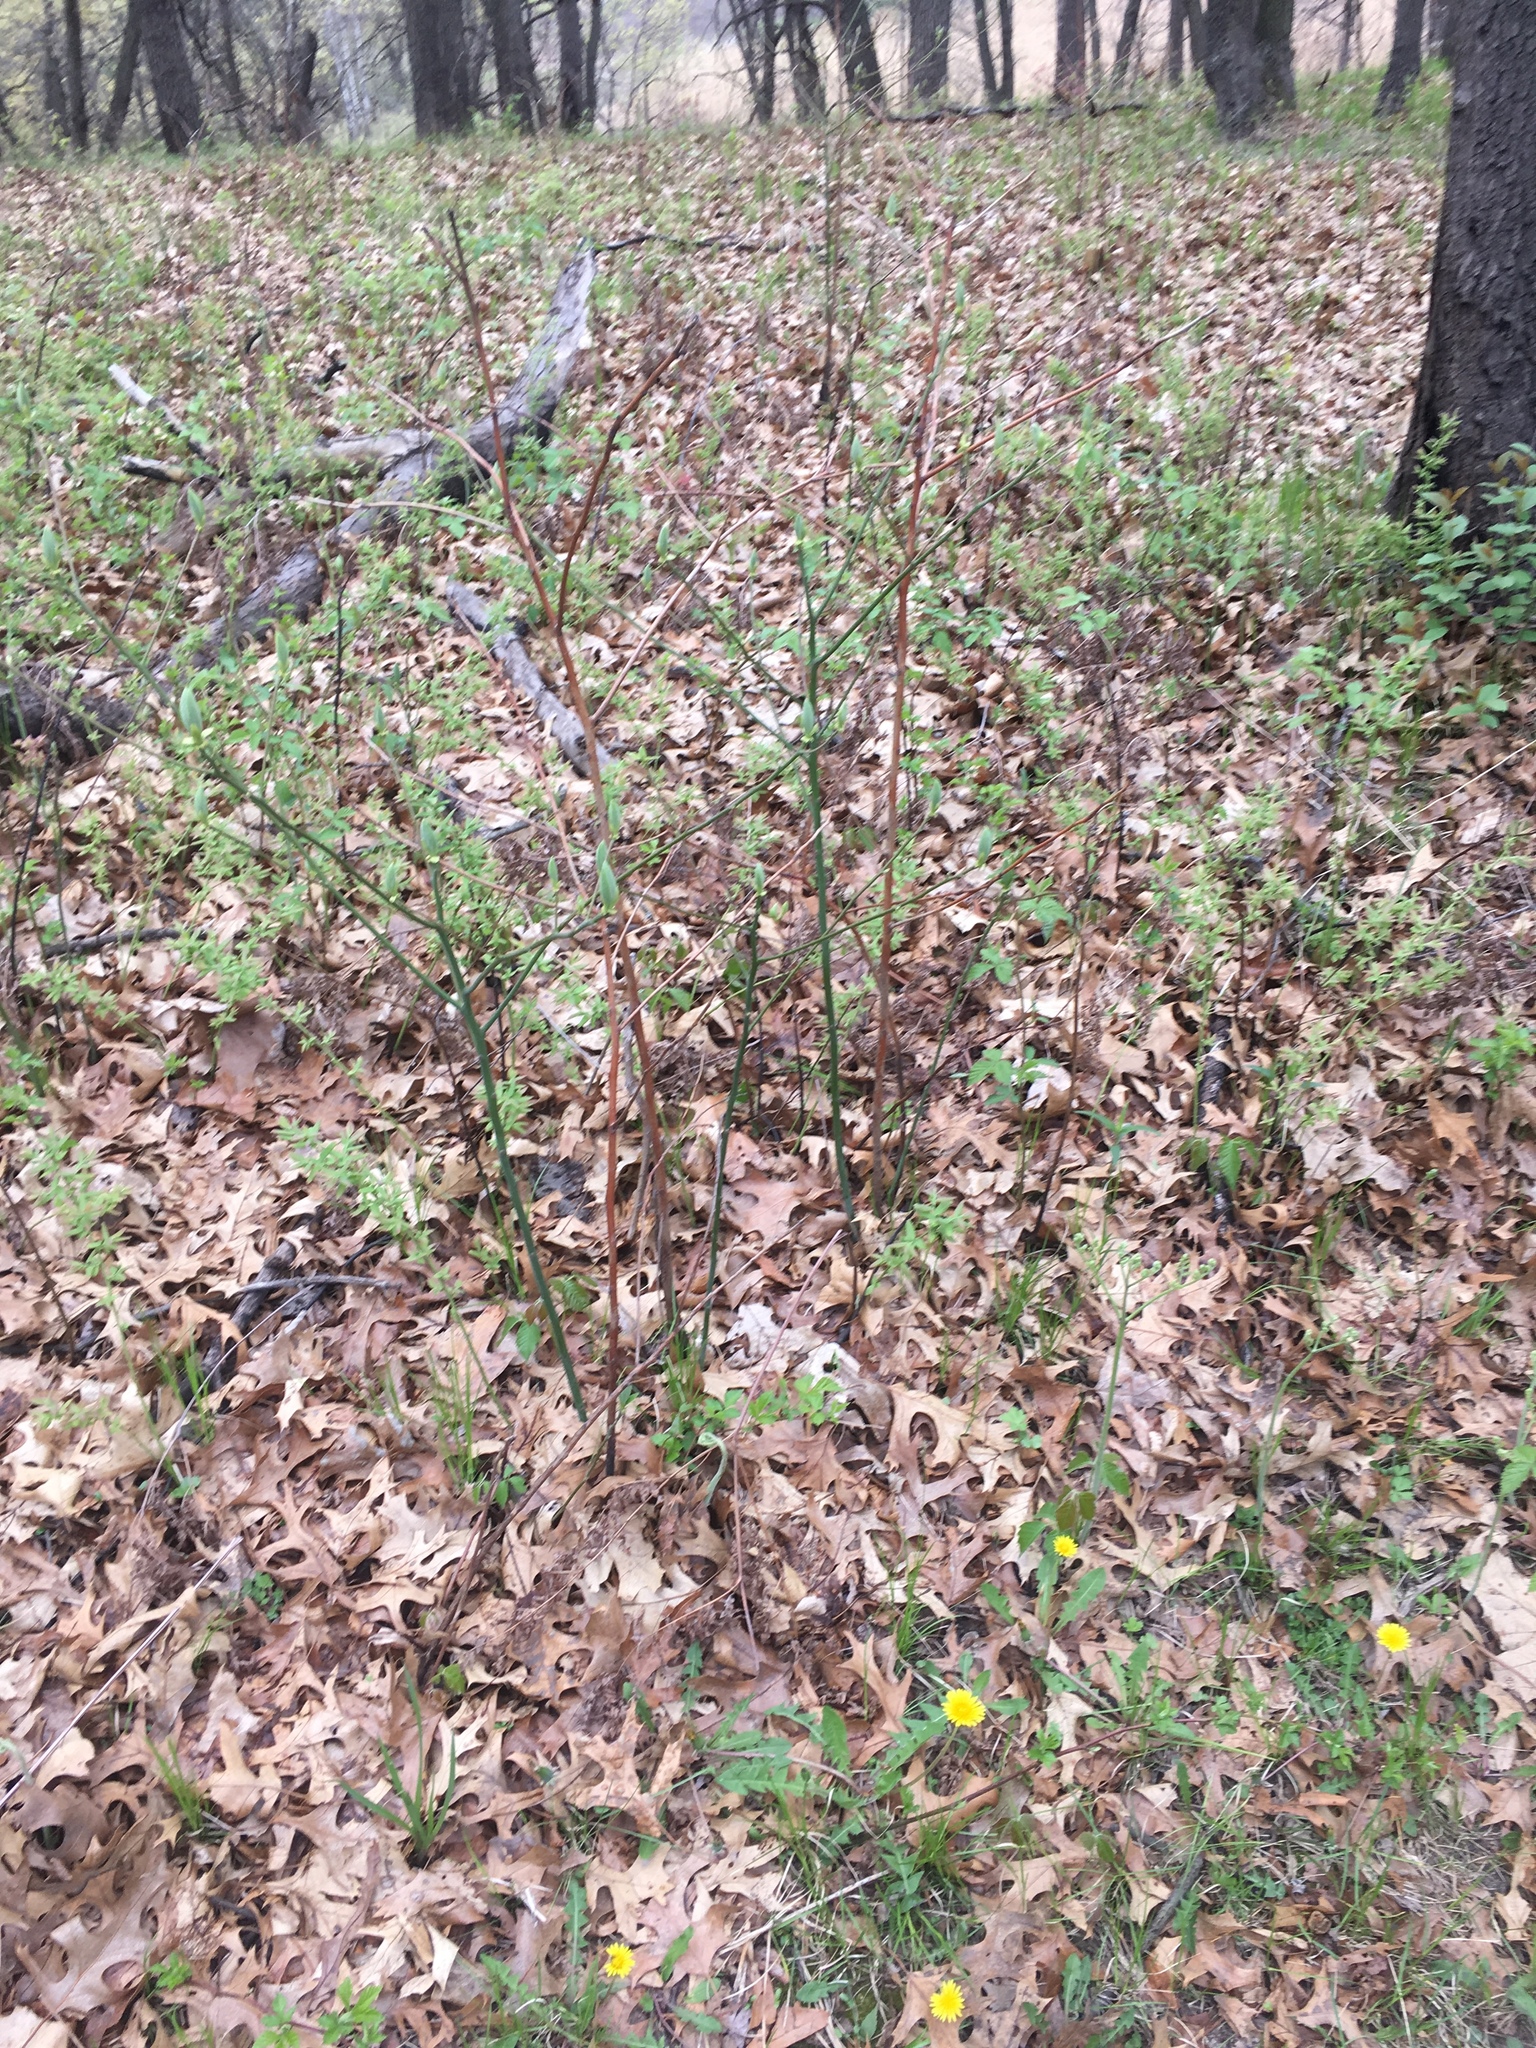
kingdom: Plantae
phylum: Tracheophyta
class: Magnoliopsida
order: Laurales
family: Lauraceae
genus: Sassafras
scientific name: Sassafras albidum
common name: Sassafras
